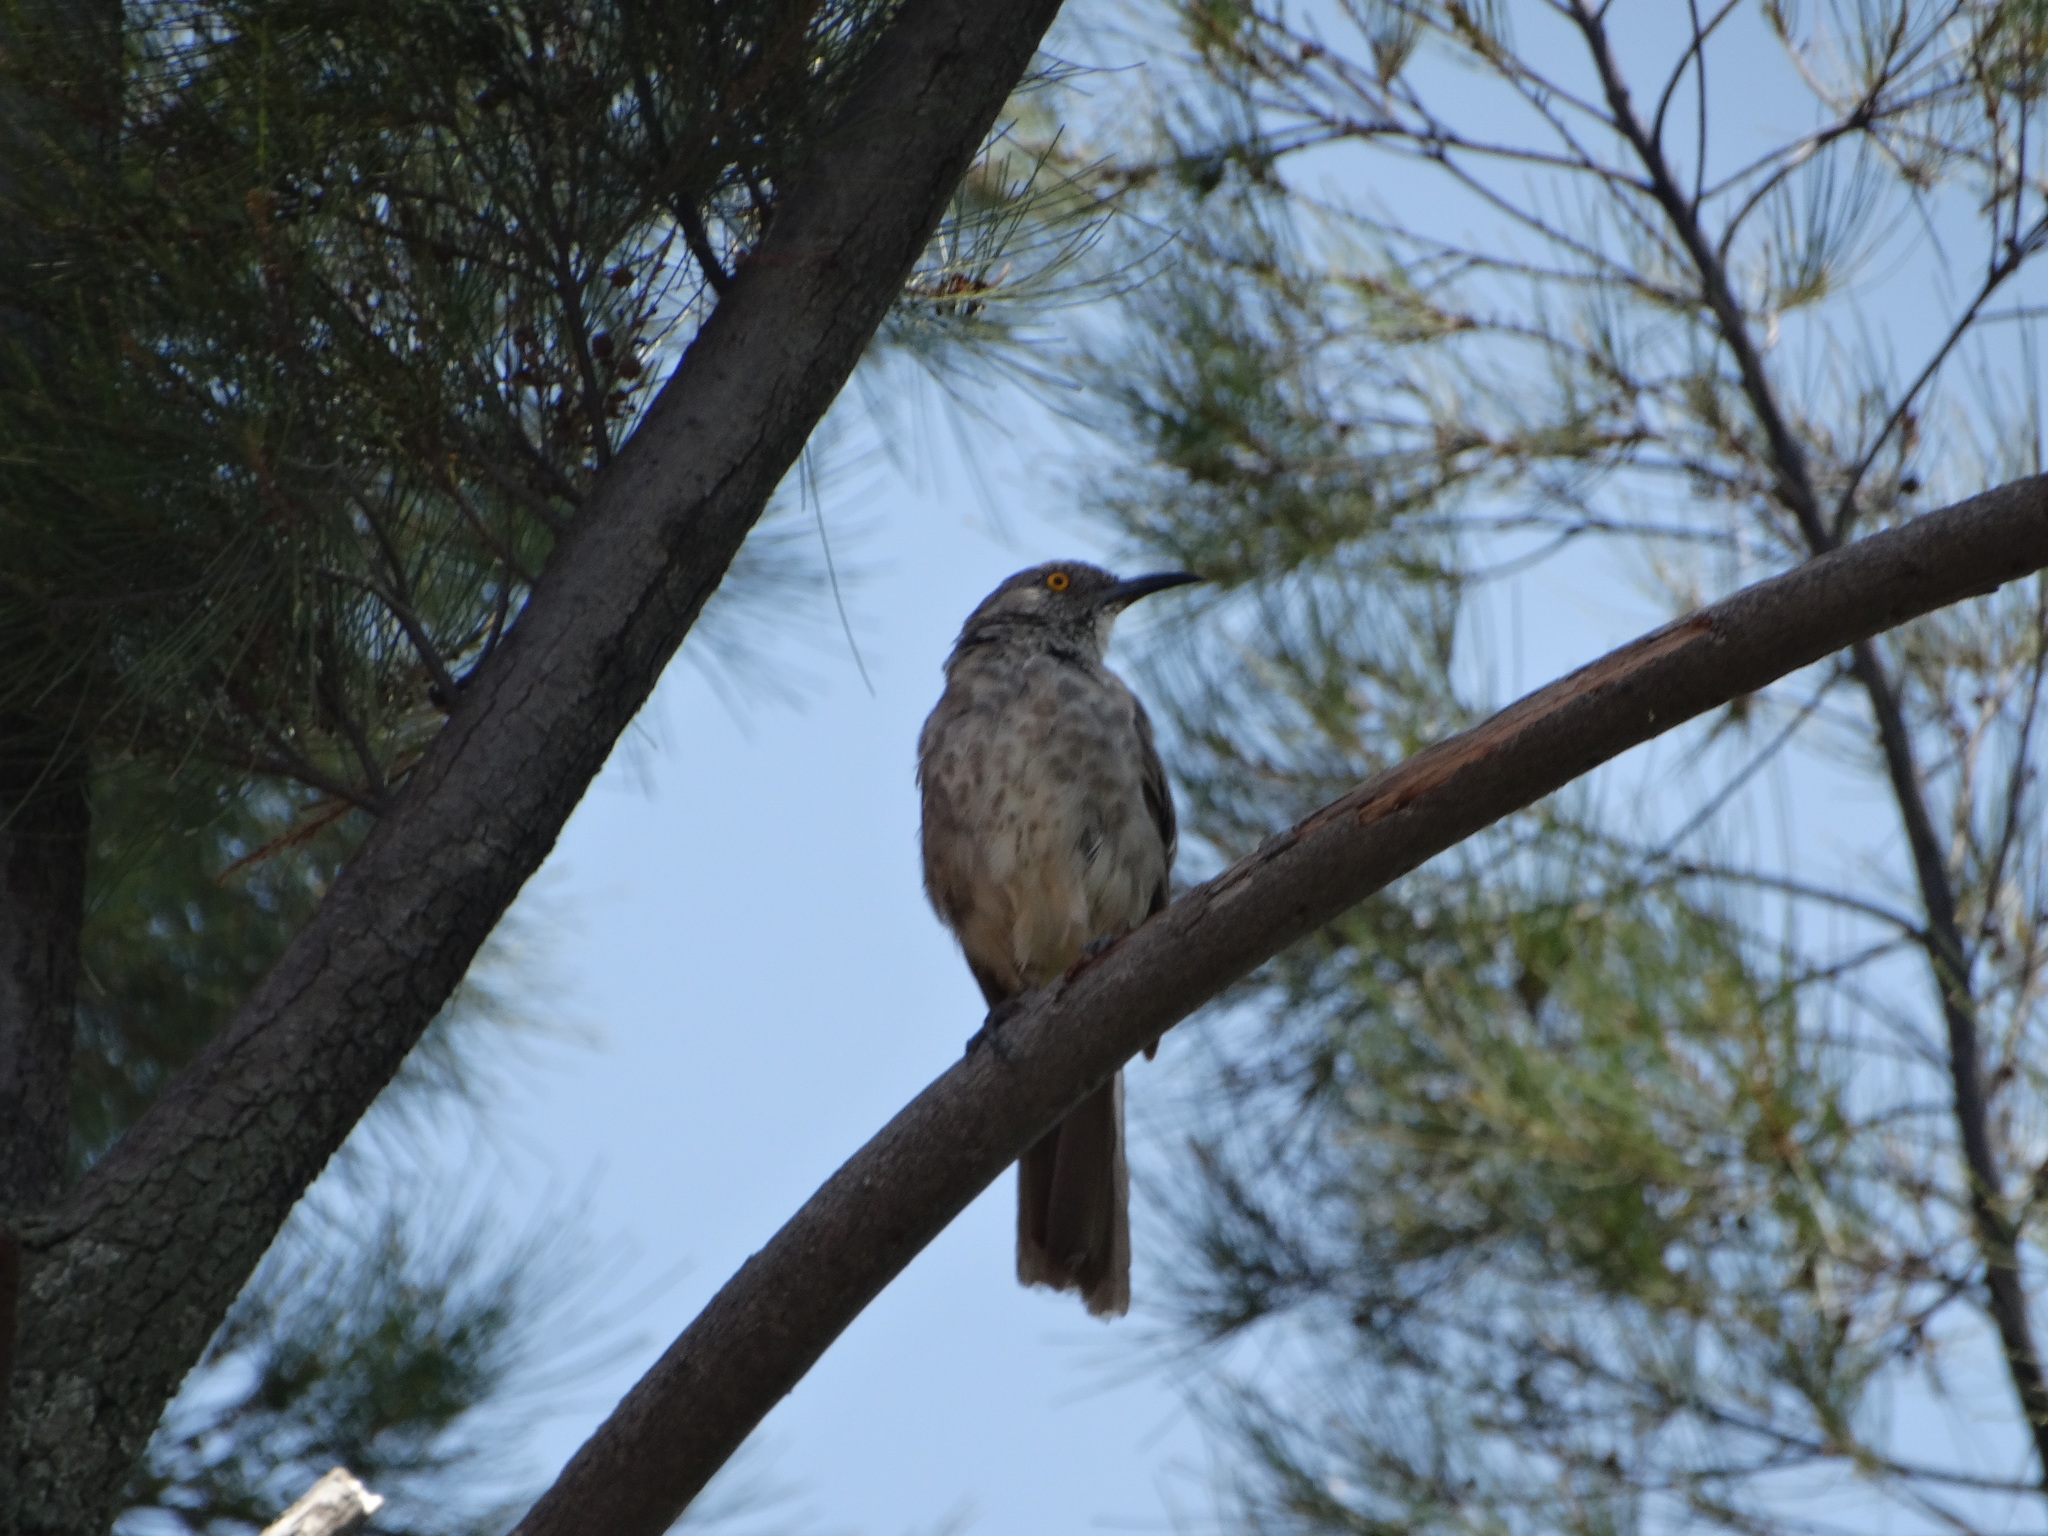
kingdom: Animalia
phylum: Chordata
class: Aves
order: Passeriformes
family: Mimidae
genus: Toxostoma
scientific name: Toxostoma curvirostre
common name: Curve-billed thrasher
